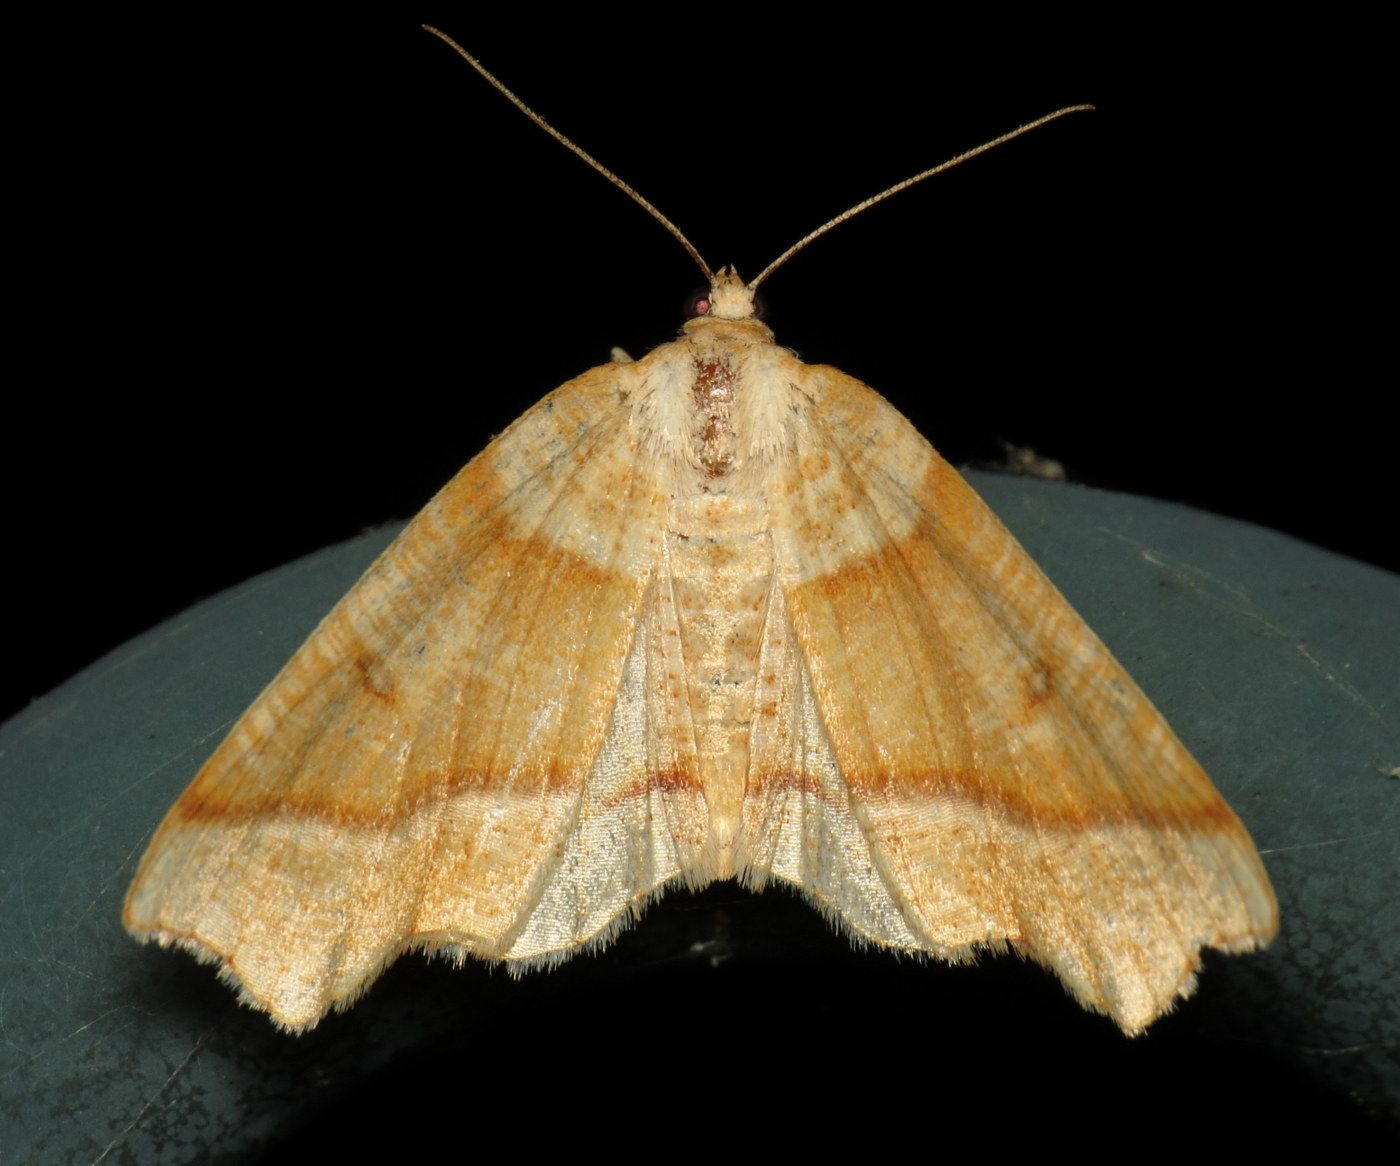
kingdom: Animalia
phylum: Arthropoda
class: Insecta
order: Lepidoptera
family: Geometridae
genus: Plagodis
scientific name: Plagodis alcoolaria
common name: Hollow-spotted plagodis
